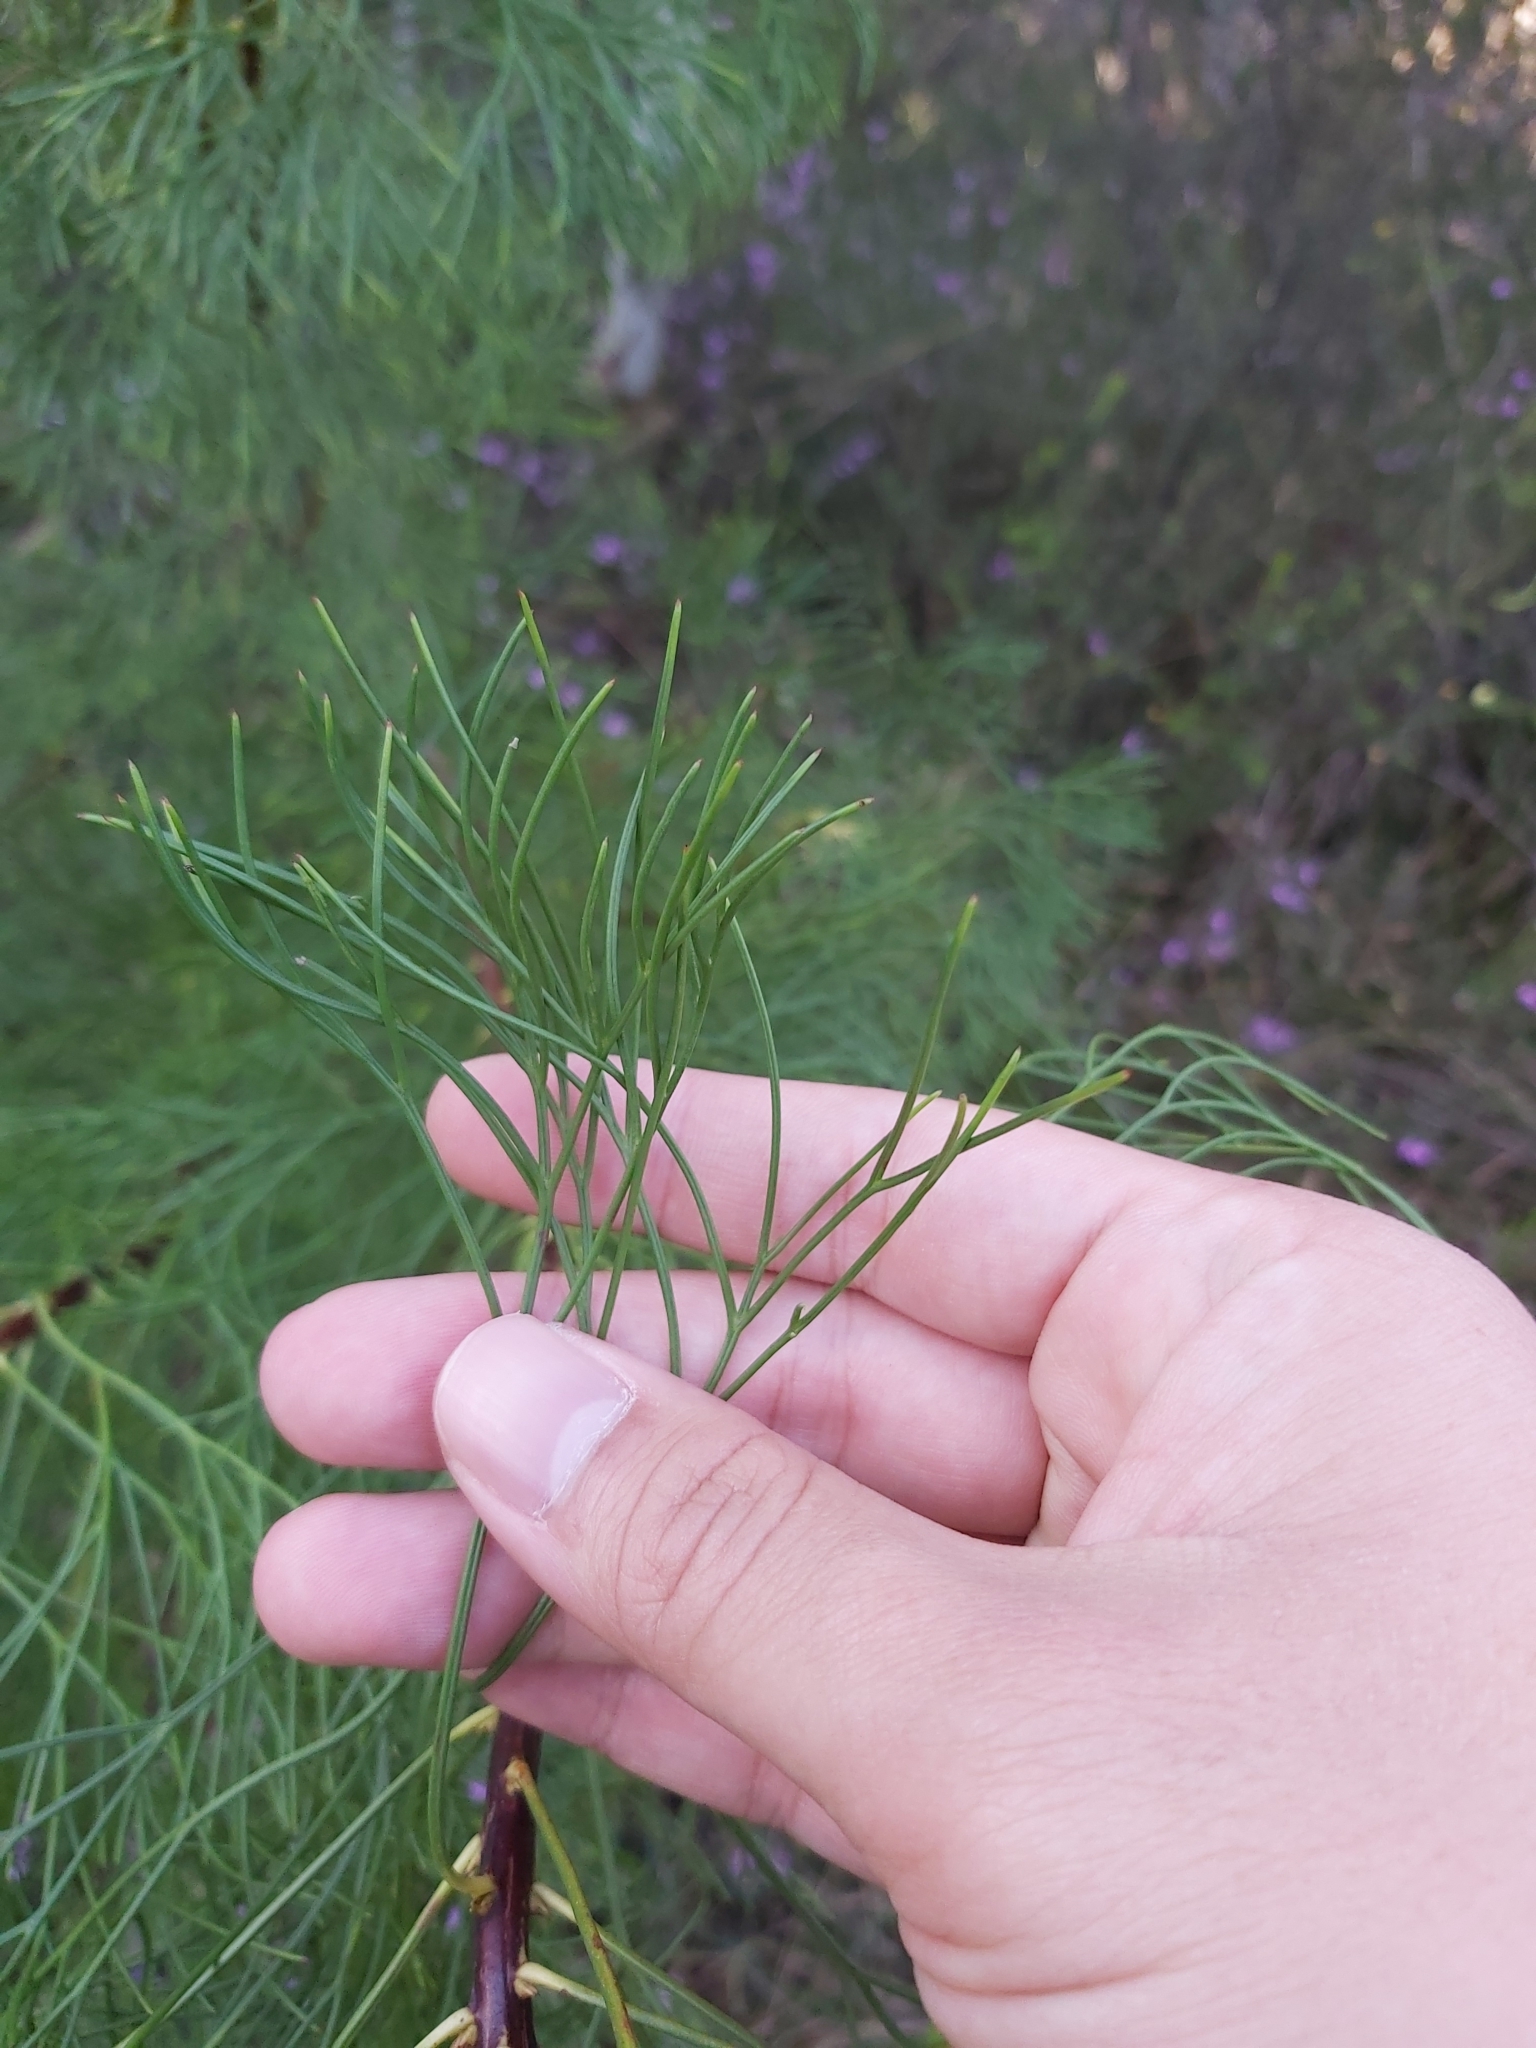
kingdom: Plantae
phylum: Tracheophyta
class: Magnoliopsida
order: Proteales
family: Proteaceae
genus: Isopogon
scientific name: Isopogon anethifolius
